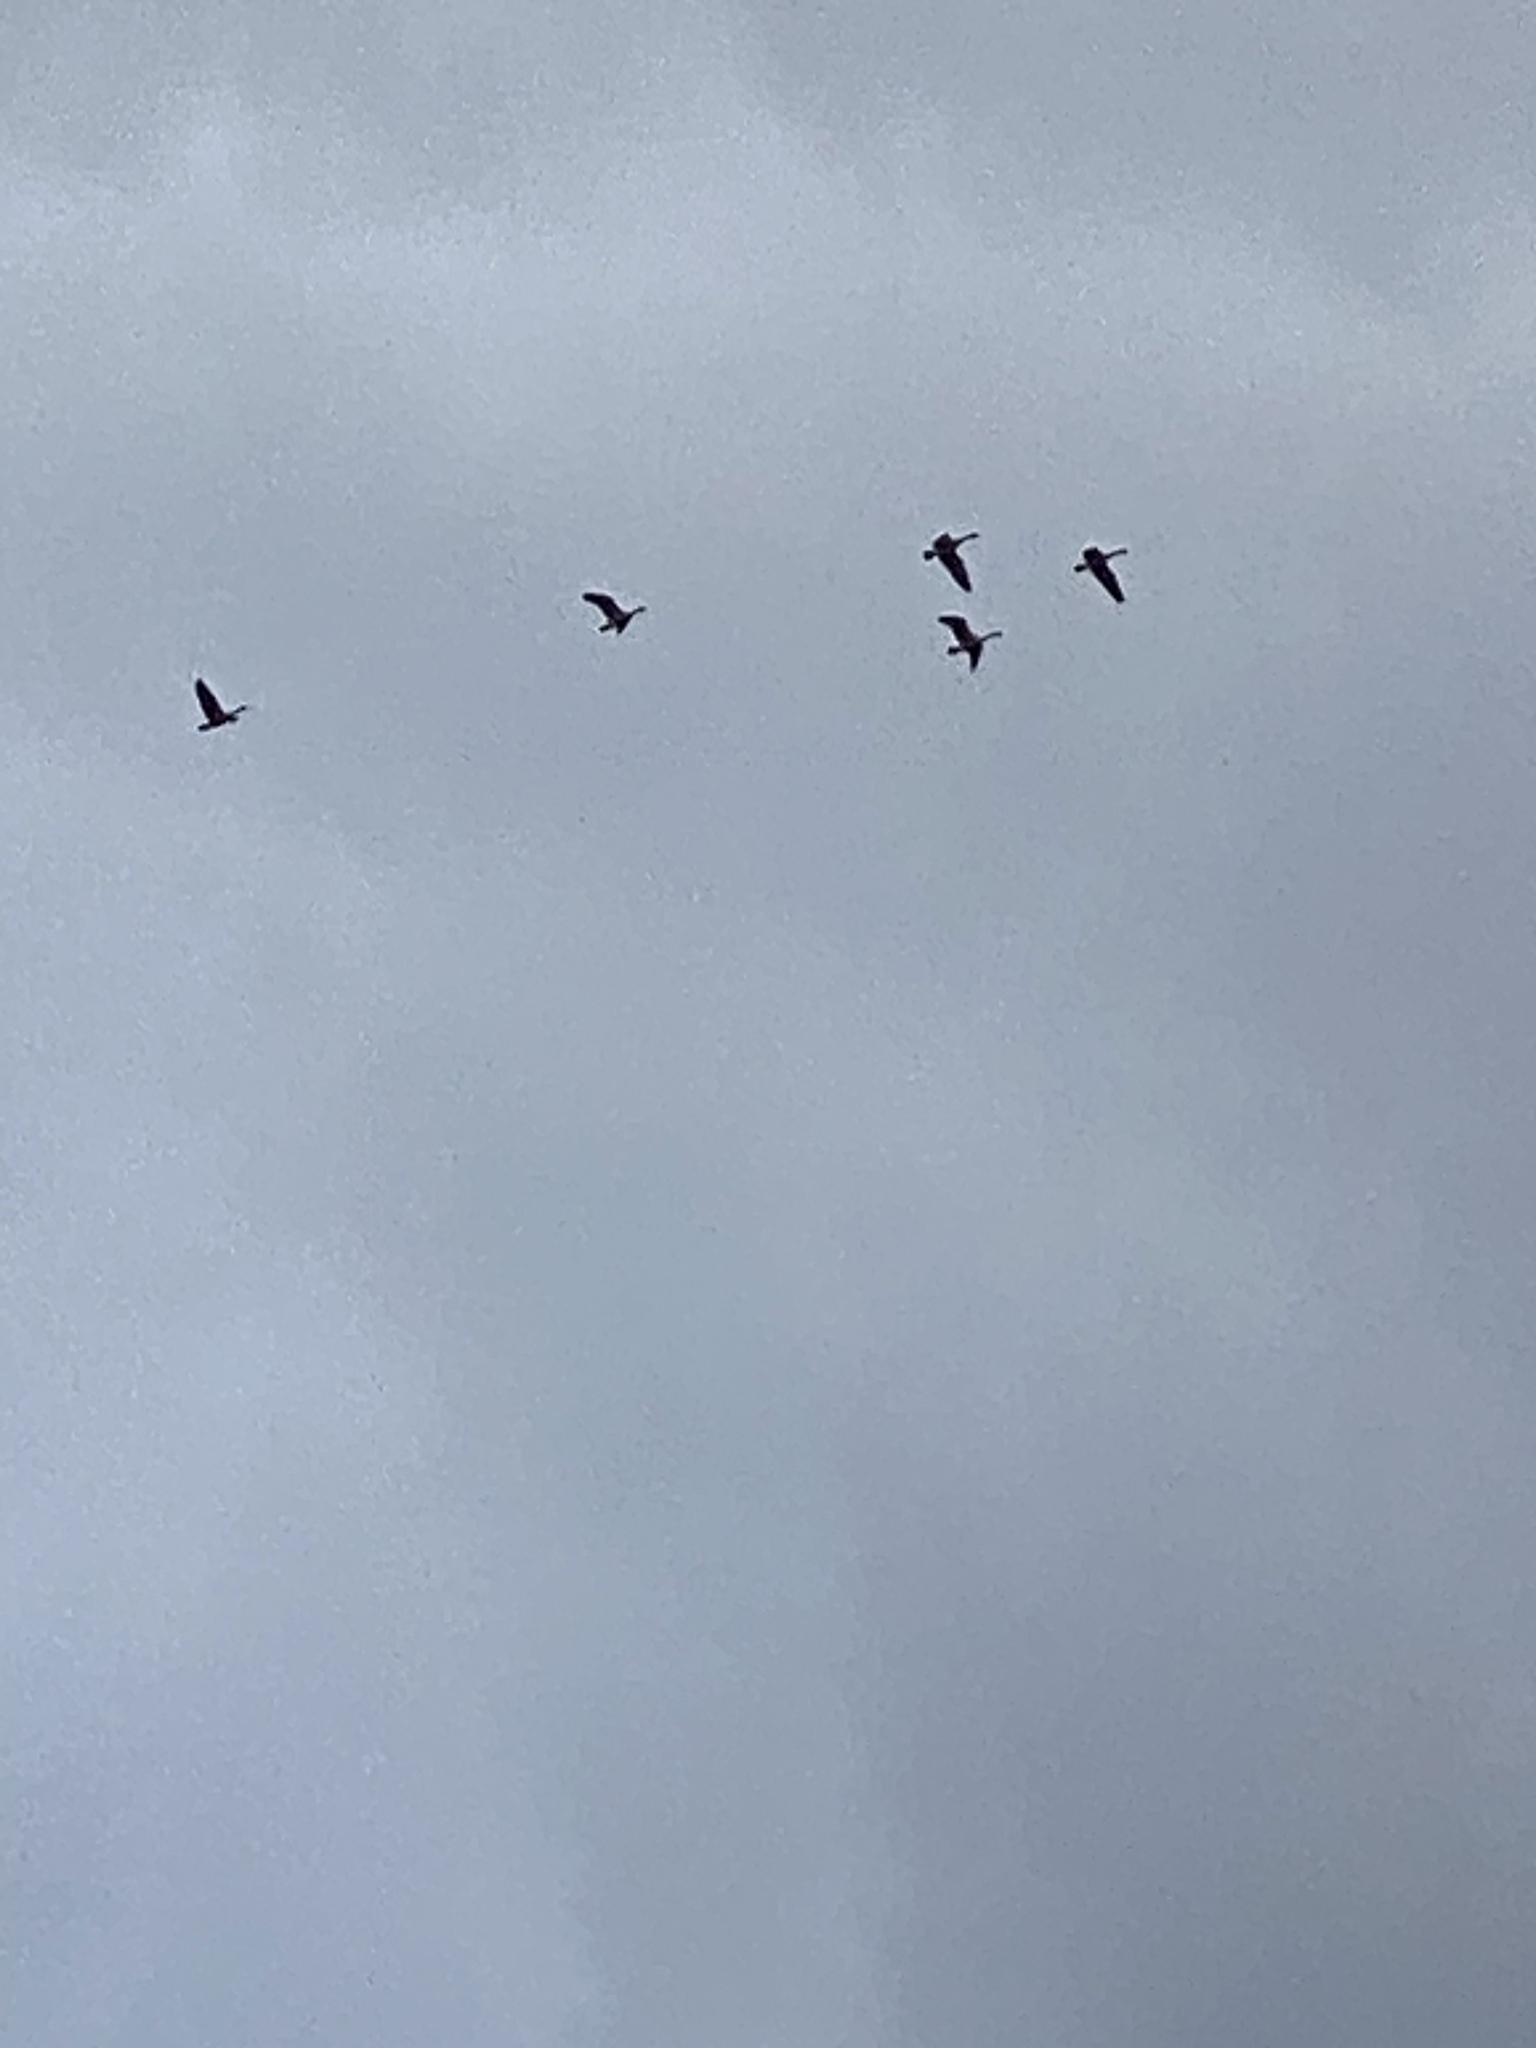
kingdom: Animalia
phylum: Chordata
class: Aves
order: Anseriformes
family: Anatidae
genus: Branta
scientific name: Branta canadensis
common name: Canada goose
